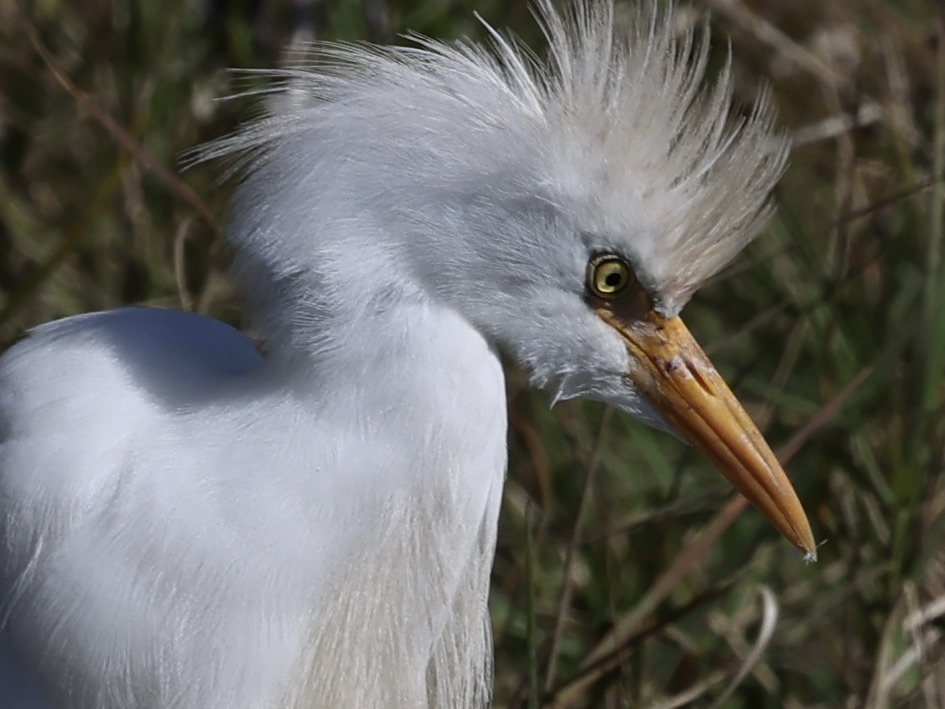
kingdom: Animalia
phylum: Chordata
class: Aves
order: Pelecaniformes
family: Ardeidae
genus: Bubulcus
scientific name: Bubulcus ibis
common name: Cattle egret
